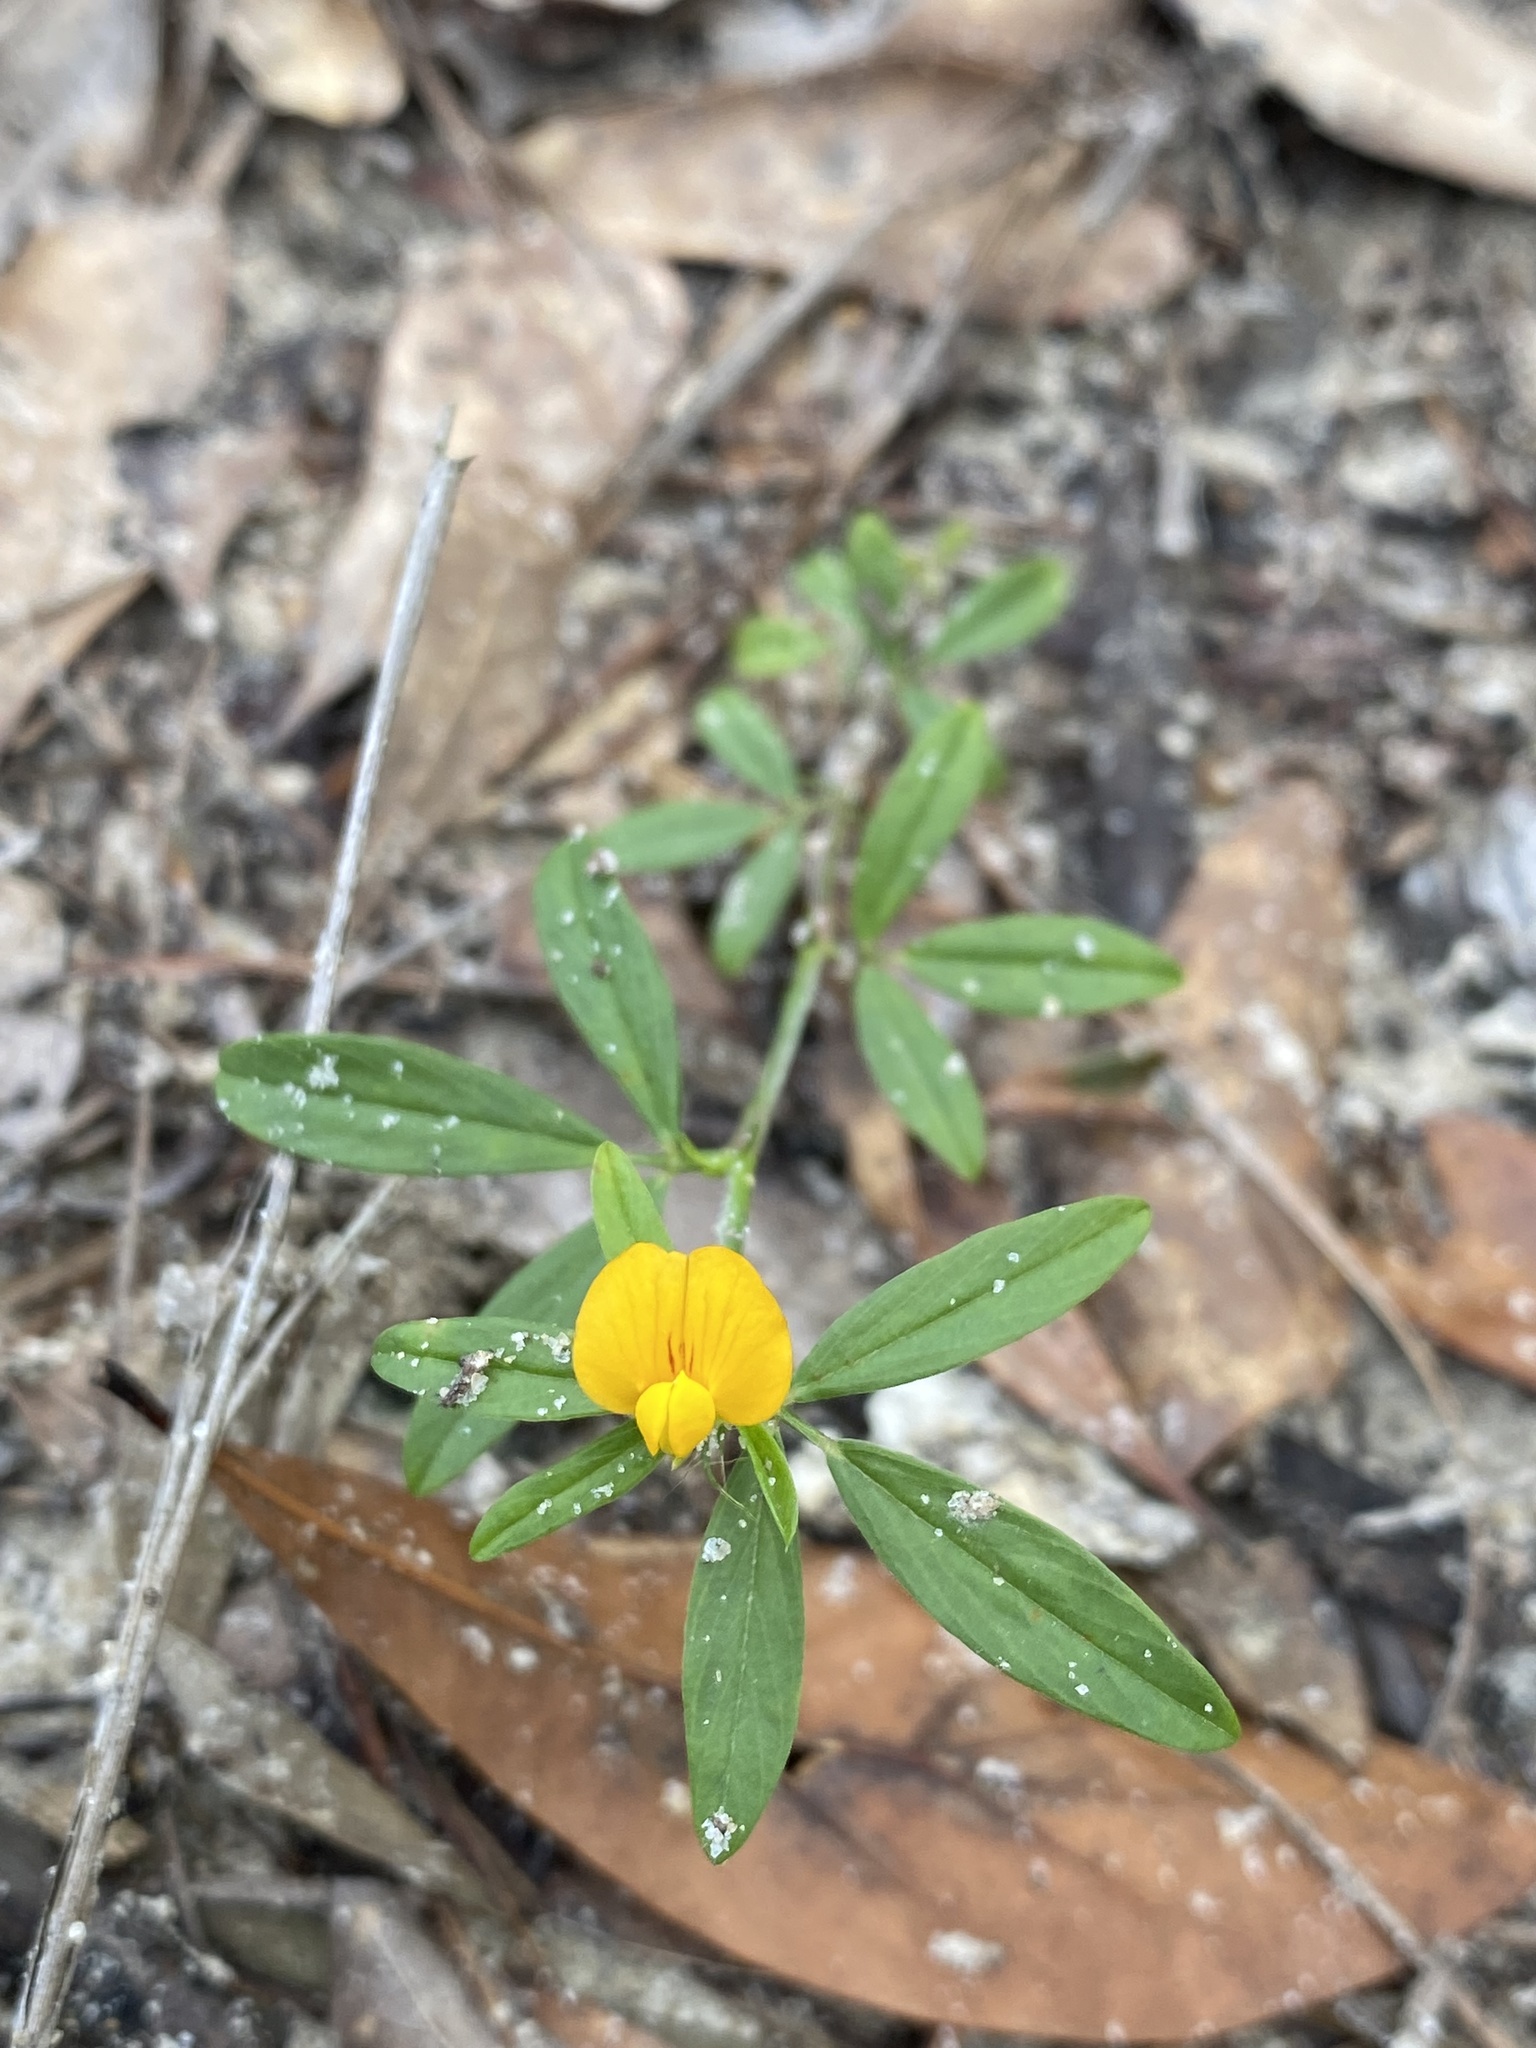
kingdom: Plantae
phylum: Tracheophyta
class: Magnoliopsida
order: Fabales
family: Fabaceae
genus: Stylosanthes
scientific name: Stylosanthes biflora
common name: Two-flower pencil-flower
